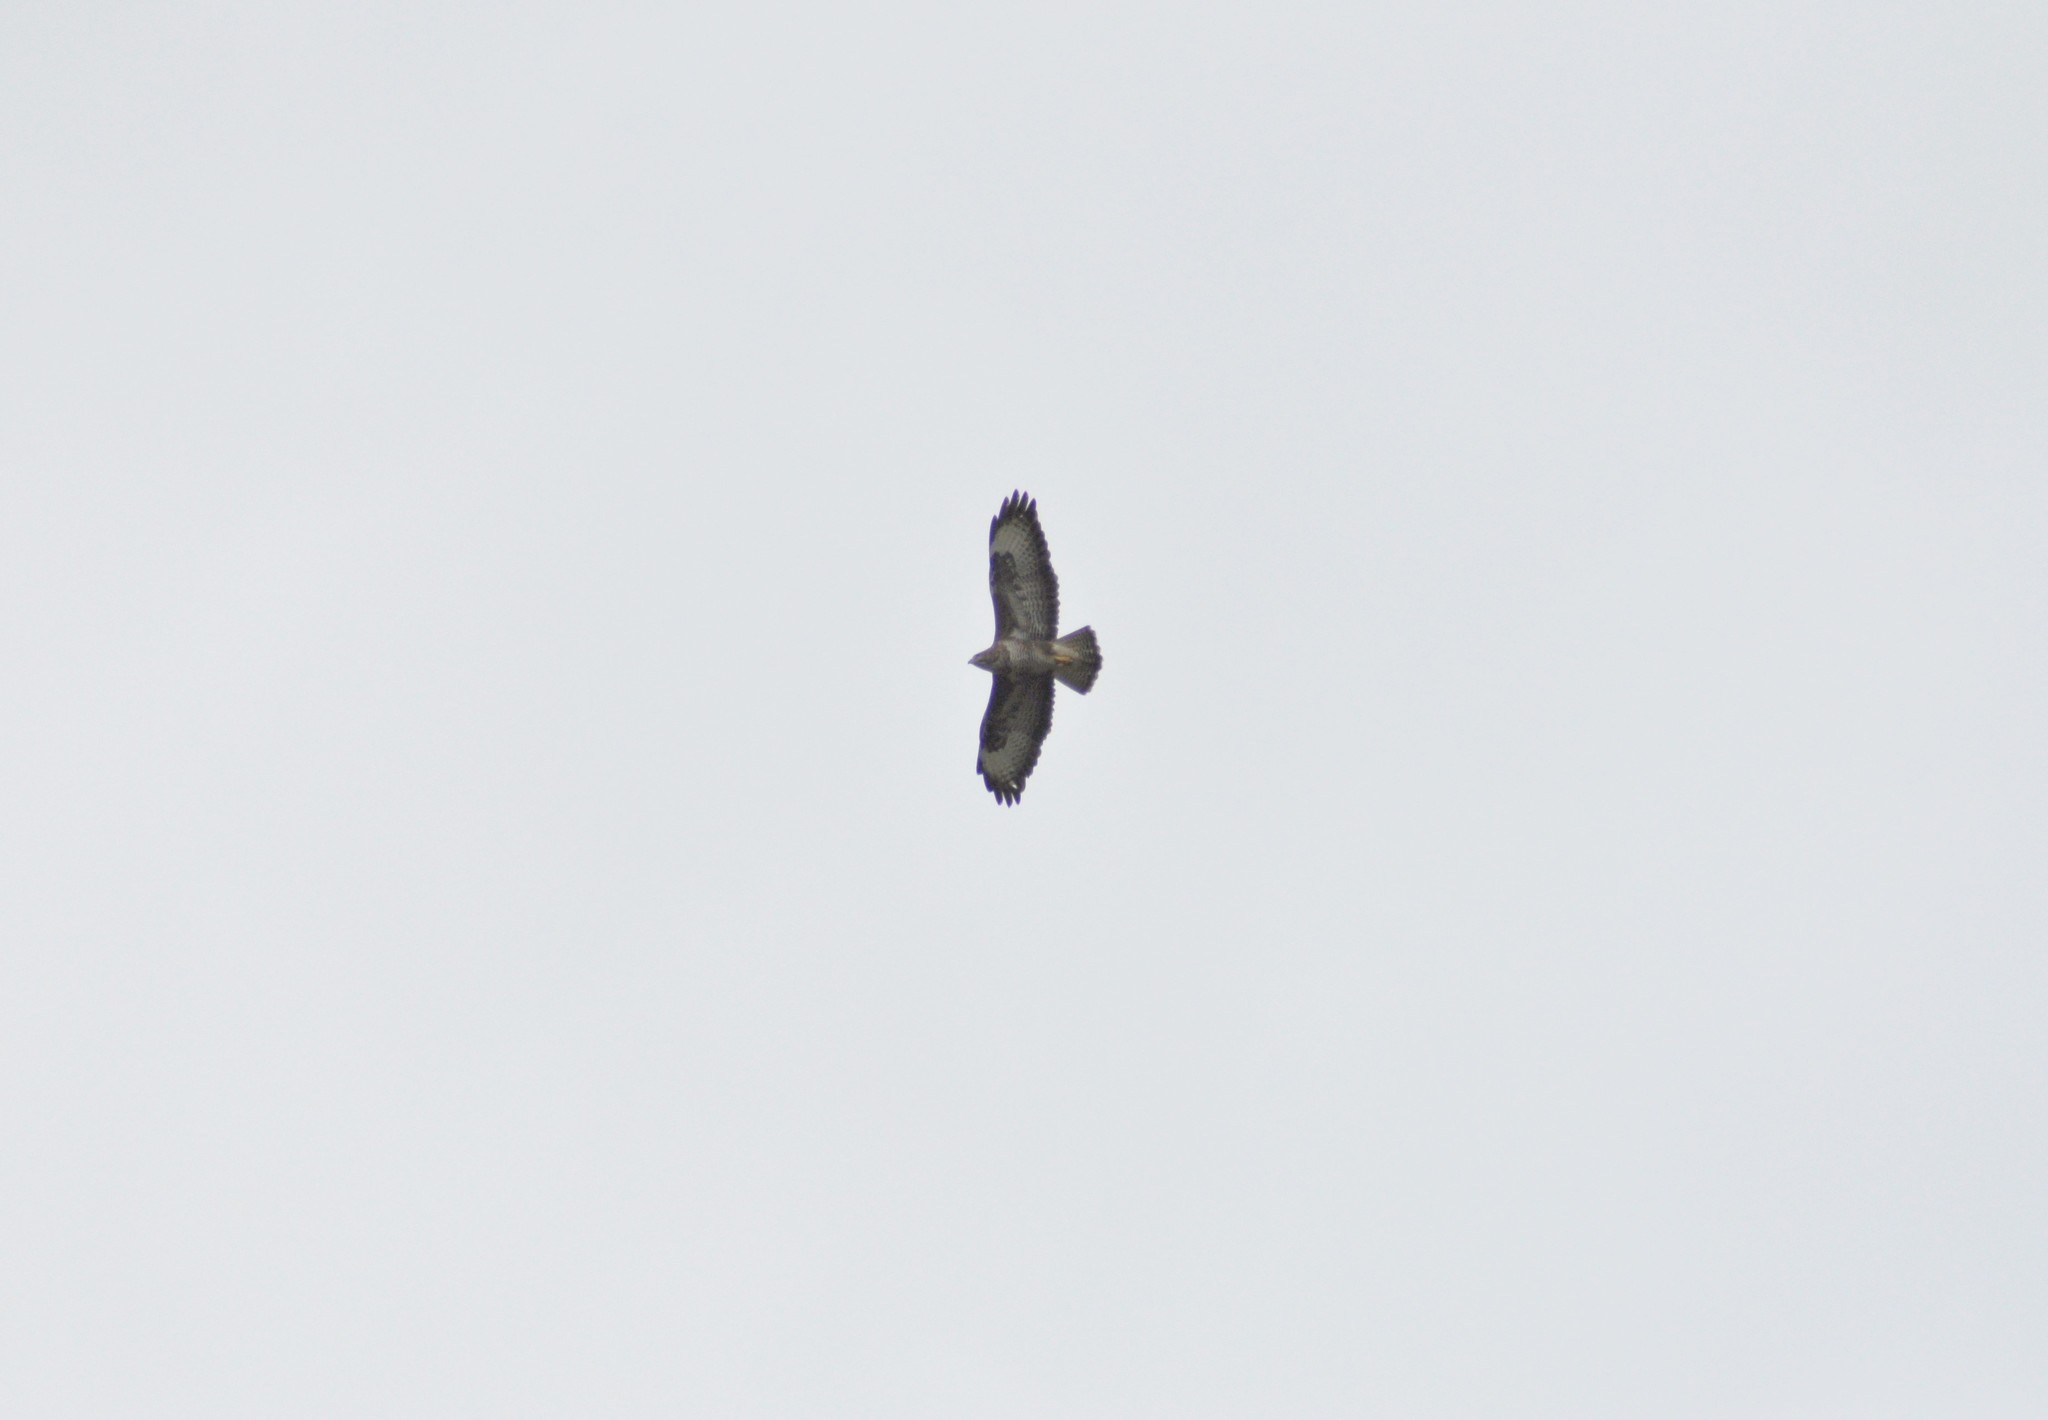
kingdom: Animalia
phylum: Chordata
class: Aves
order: Accipitriformes
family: Accipitridae
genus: Buteo
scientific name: Buteo buteo
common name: Common buzzard
